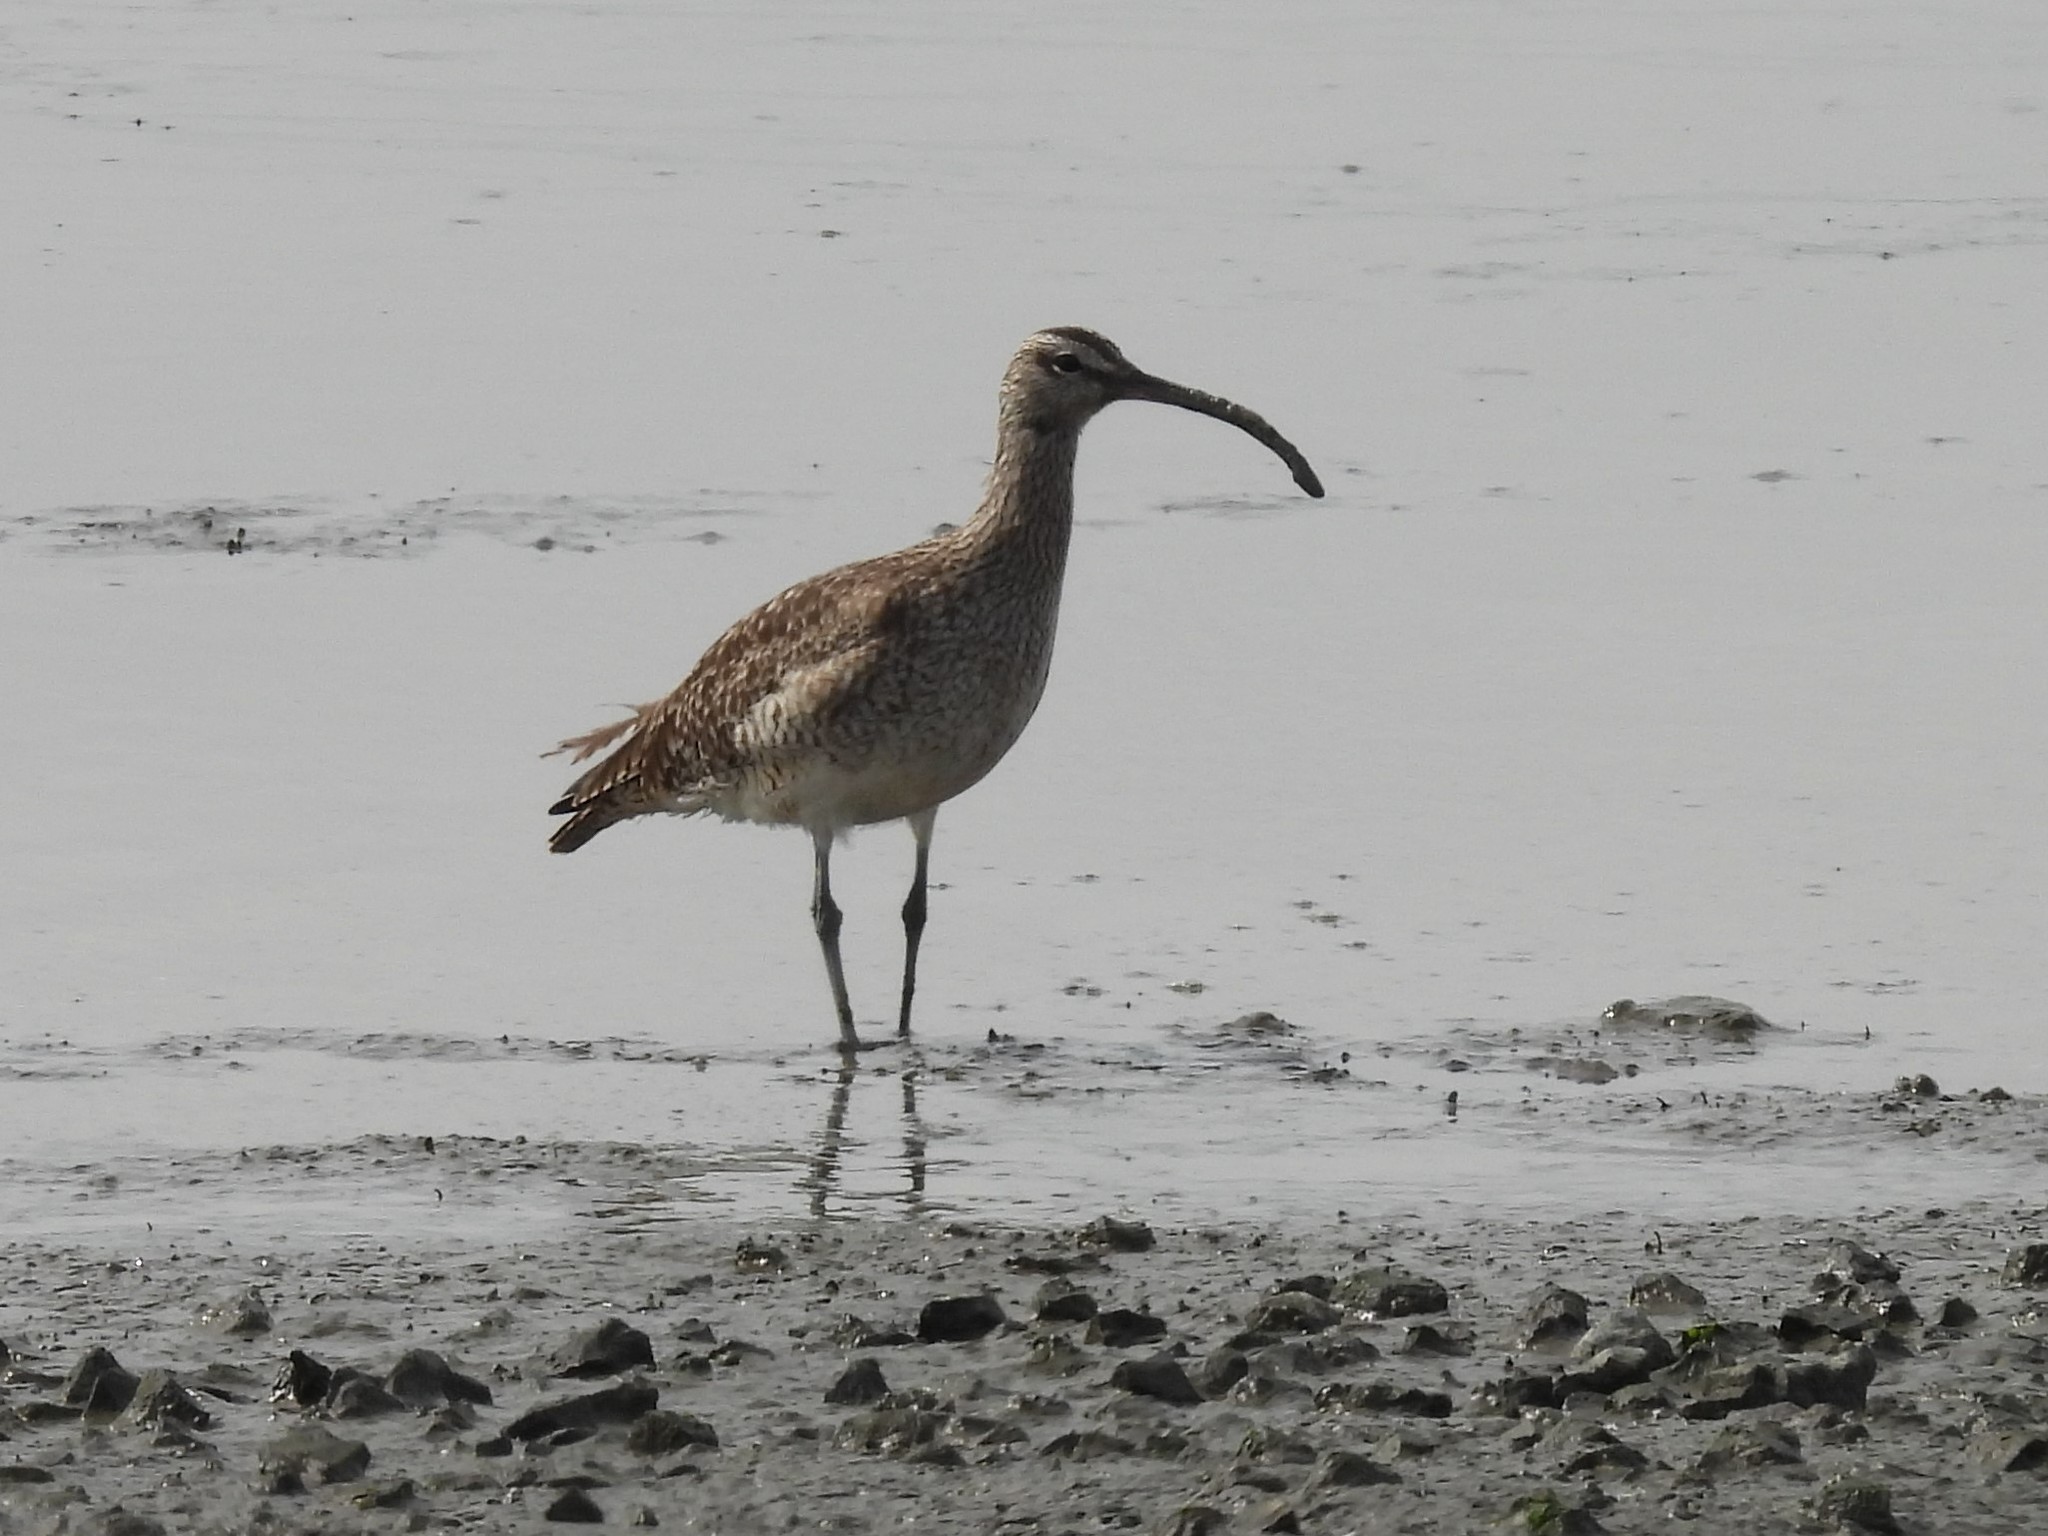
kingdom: Animalia
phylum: Chordata
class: Aves
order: Charadriiformes
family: Scolopacidae
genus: Numenius
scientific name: Numenius phaeopus
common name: Whimbrel
